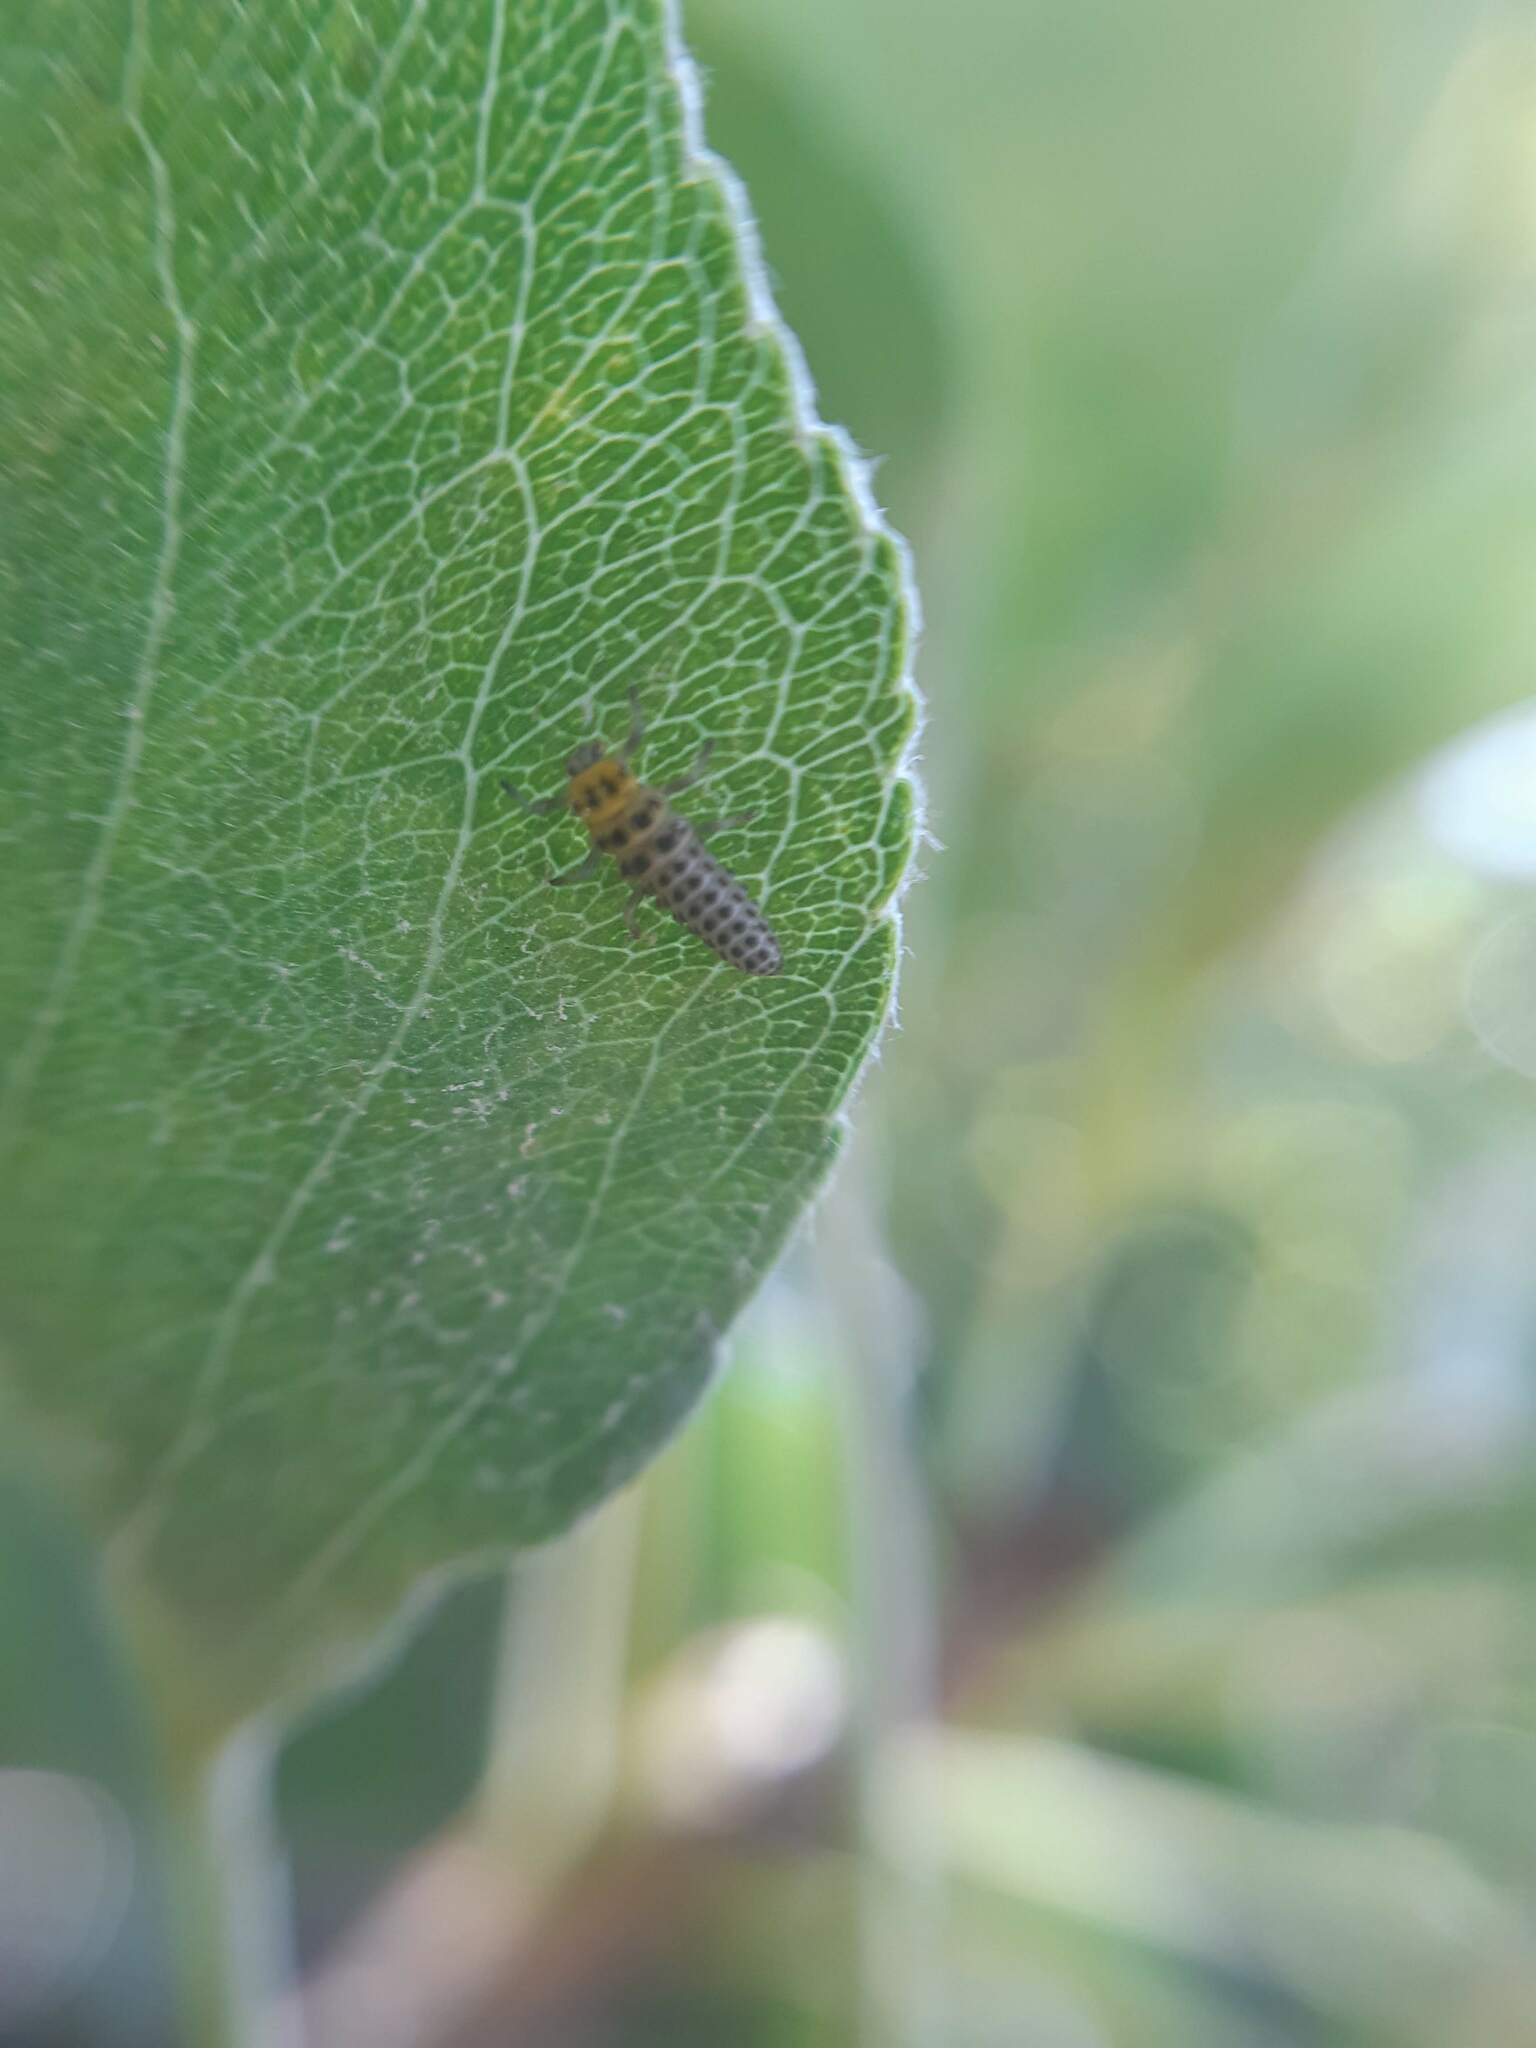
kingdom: Animalia
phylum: Arthropoda
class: Insecta
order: Coleoptera
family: Coccinellidae
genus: Illeis
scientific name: Illeis galbula
